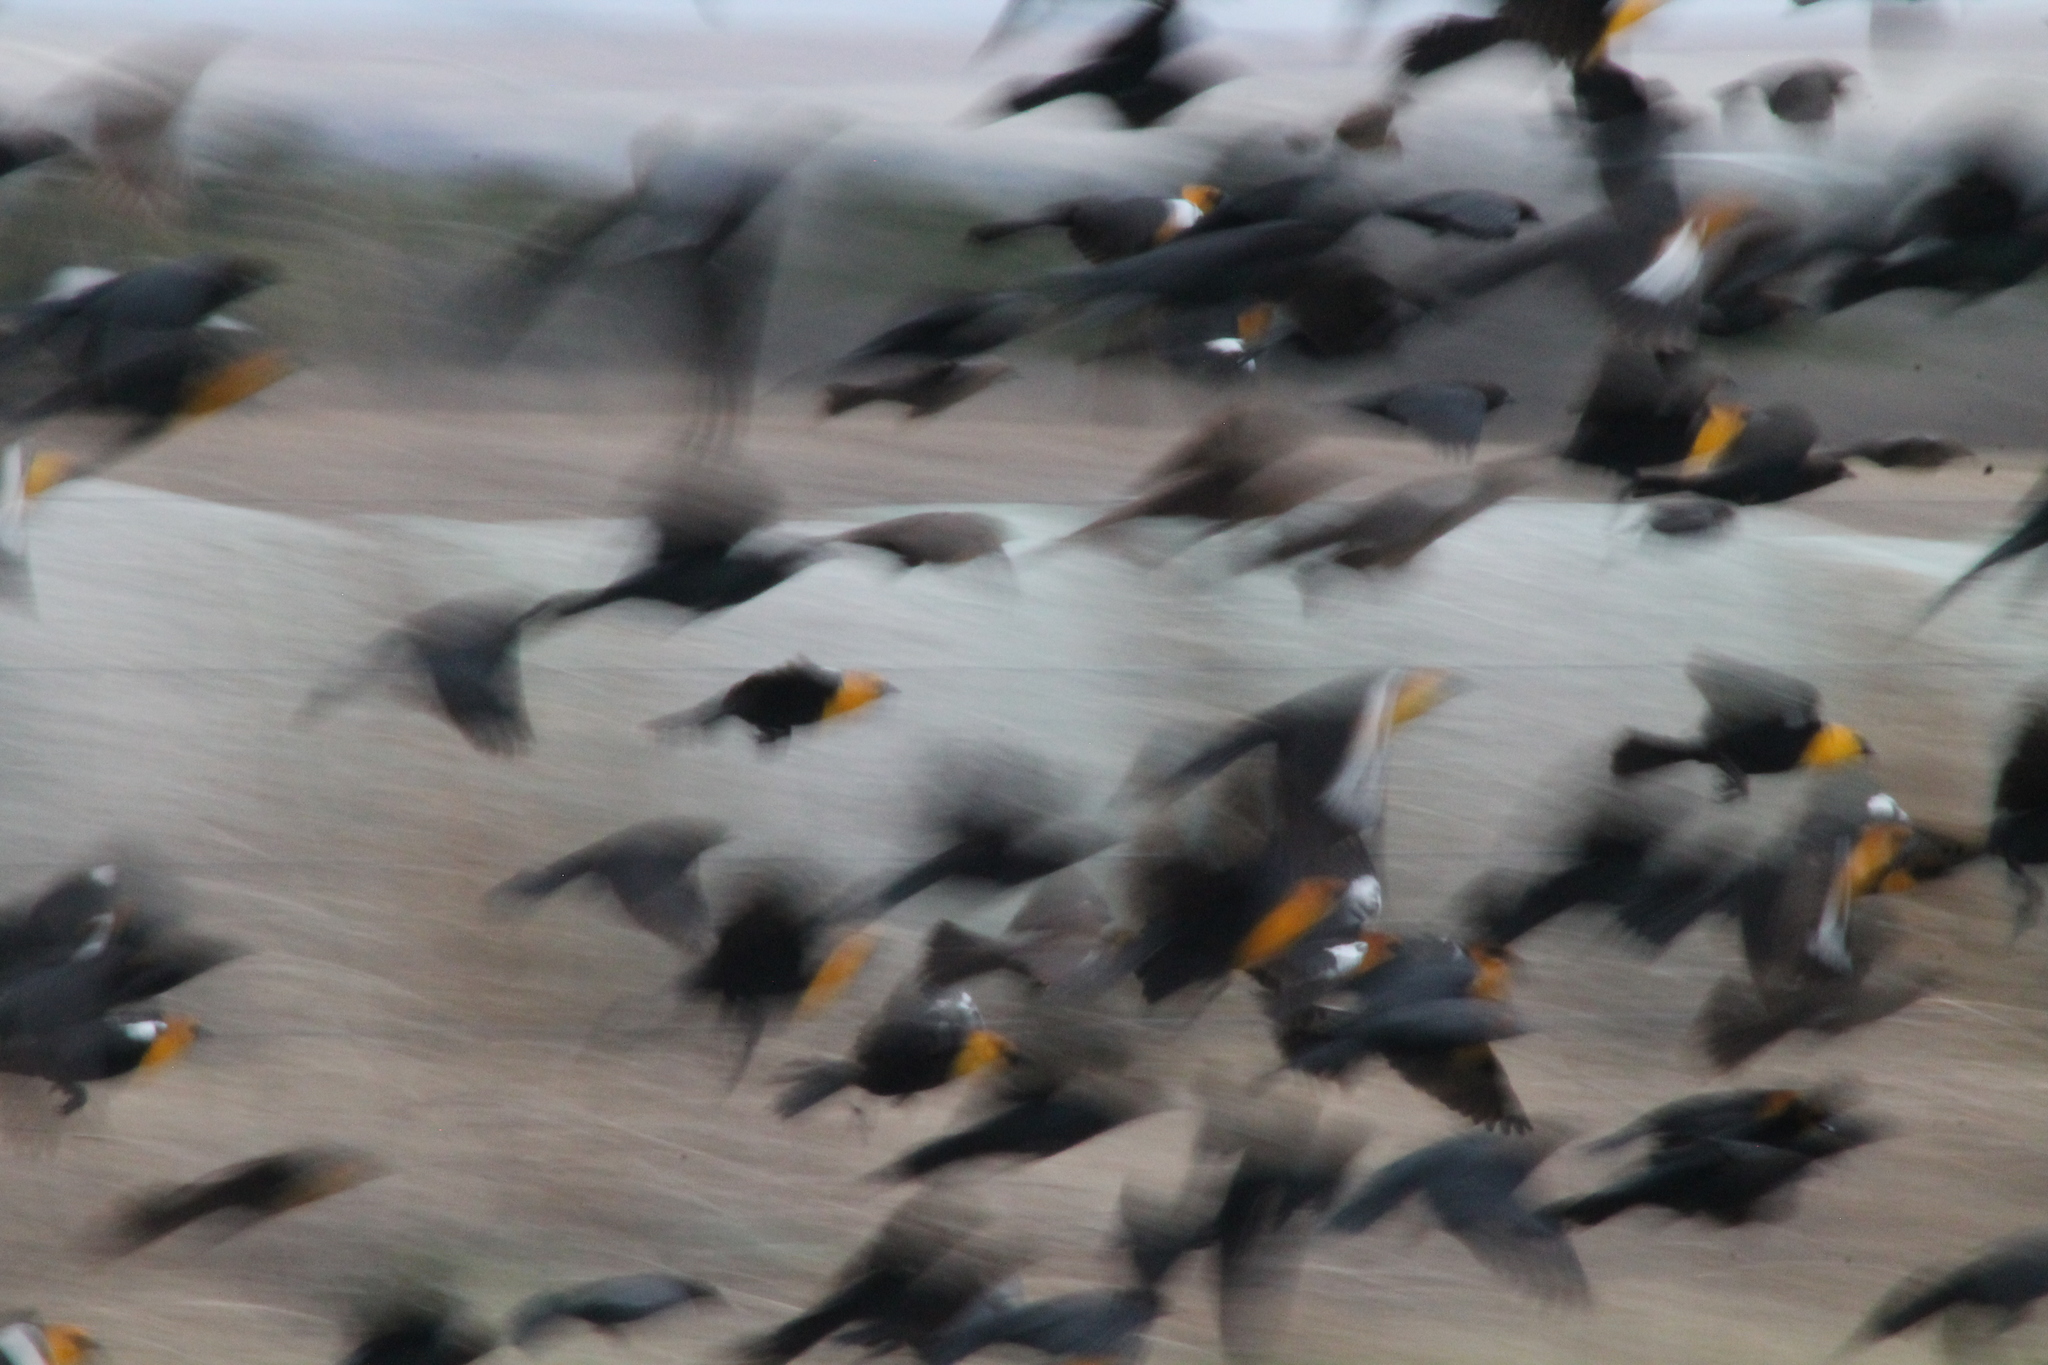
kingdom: Animalia
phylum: Chordata
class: Aves
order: Passeriformes
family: Icteridae
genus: Xanthocephalus
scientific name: Xanthocephalus xanthocephalus
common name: Yellow-headed blackbird
